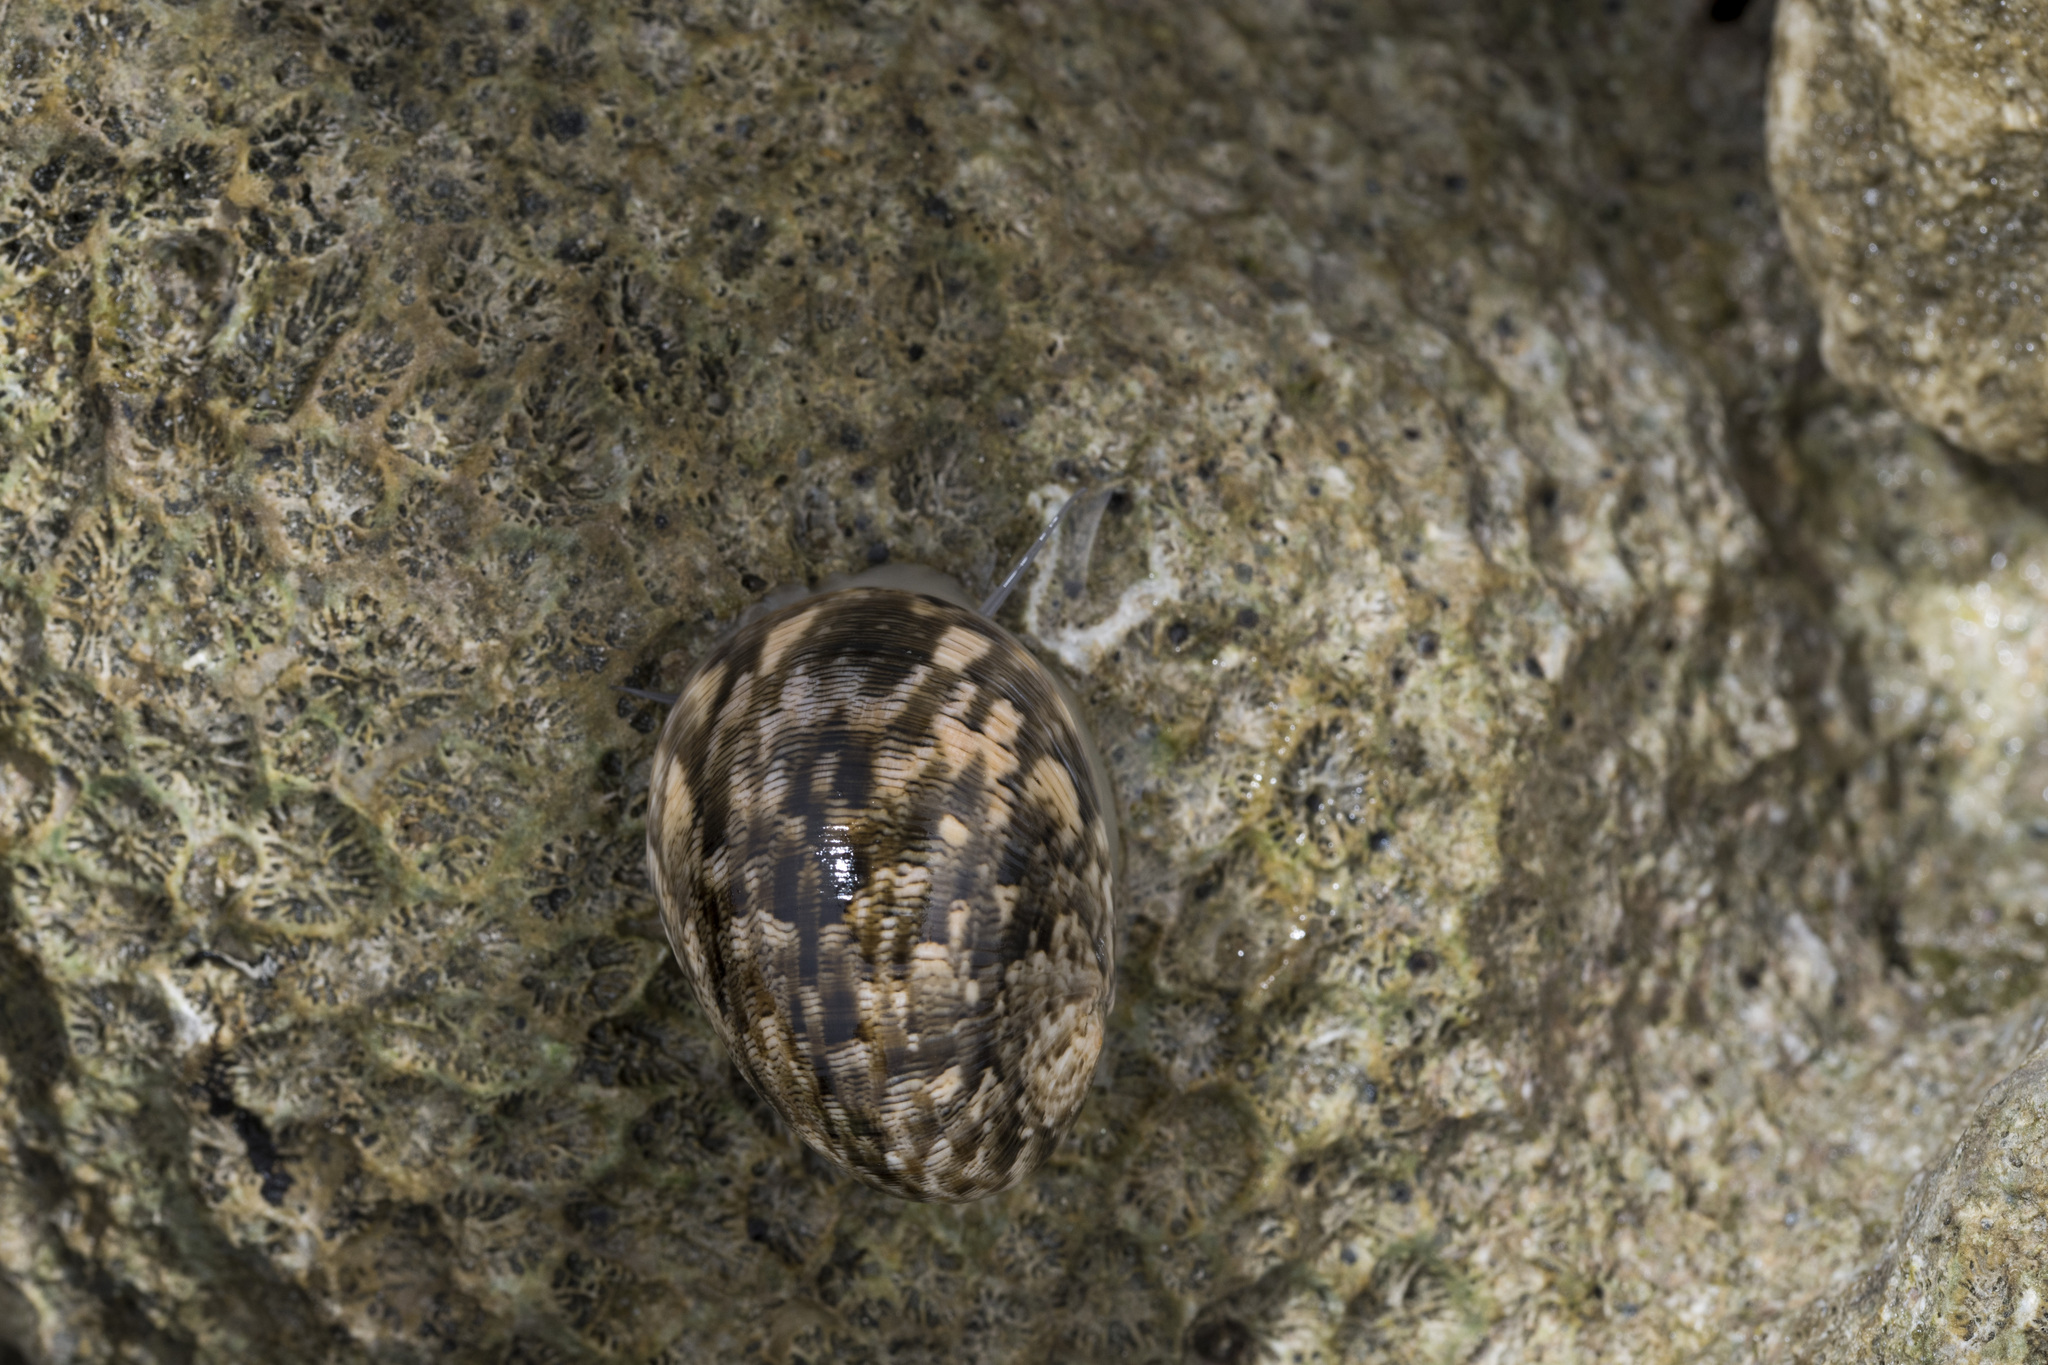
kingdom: Animalia
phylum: Mollusca
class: Gastropoda
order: Cycloneritida
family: Neritidae
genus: Nerita
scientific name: Nerita polita
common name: Polished nerite
